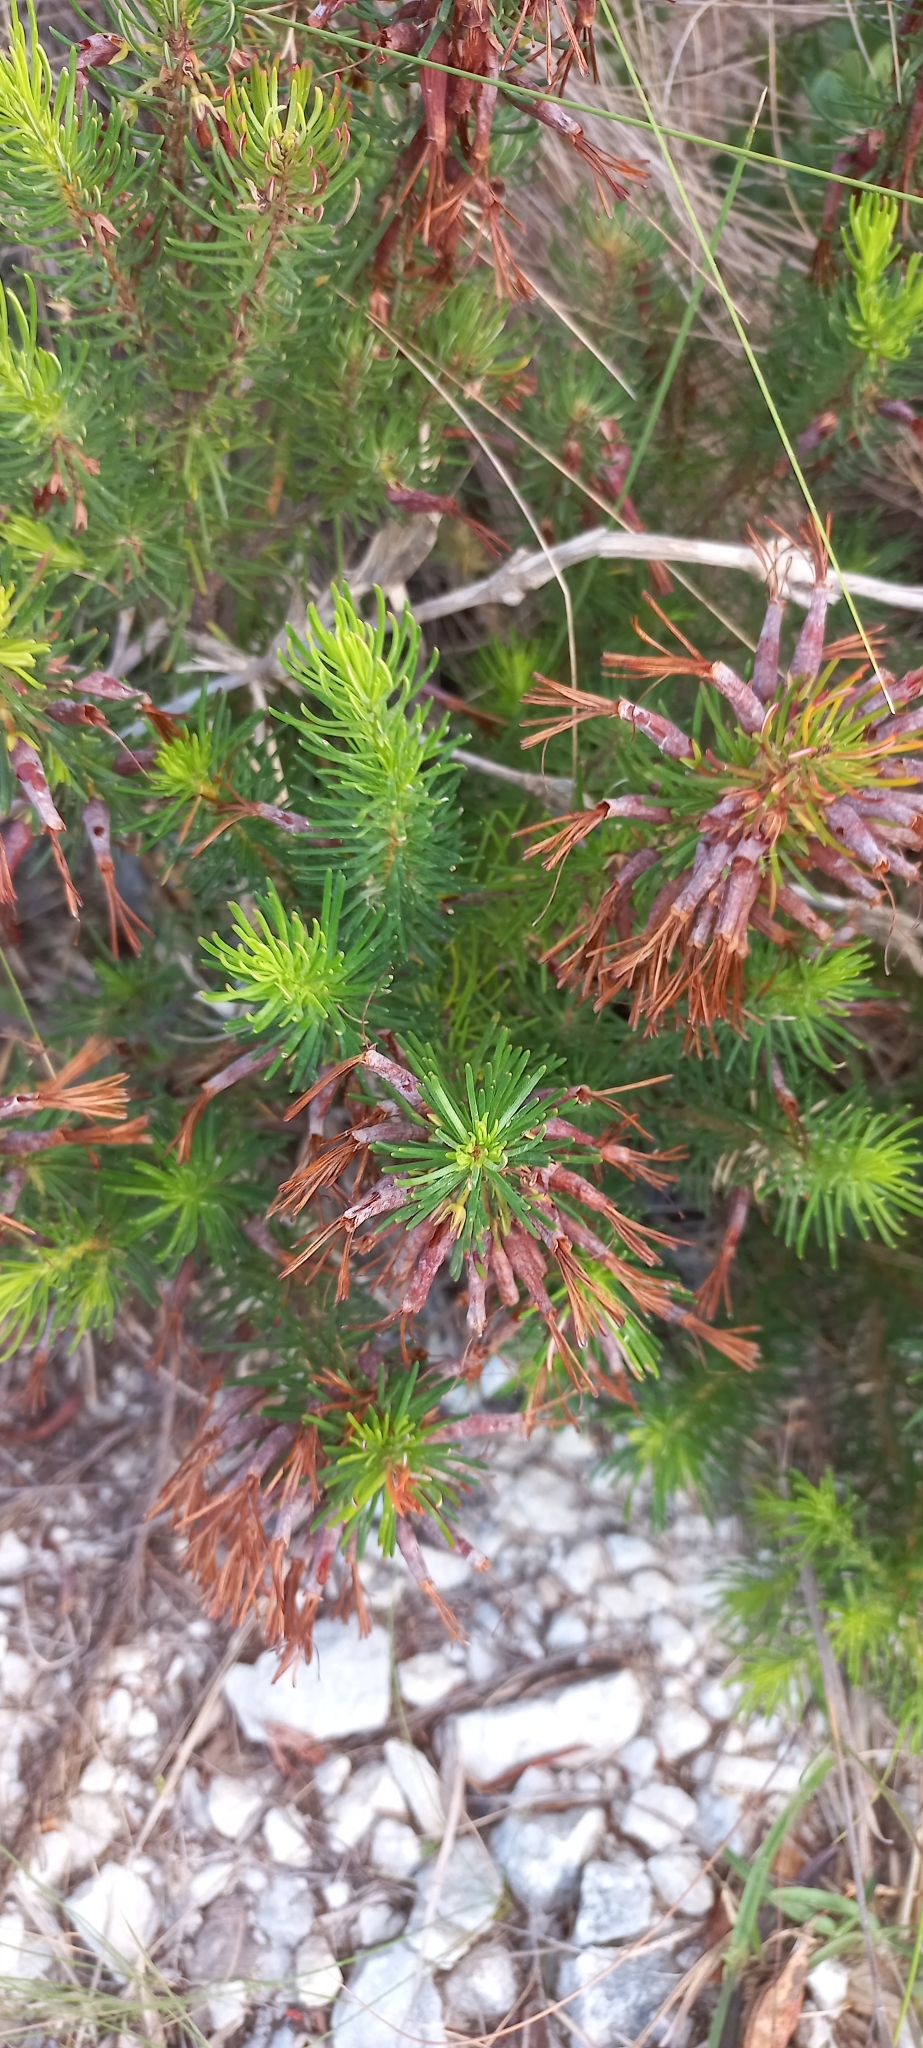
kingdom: Plantae
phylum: Tracheophyta
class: Magnoliopsida
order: Ericales
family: Ericaceae
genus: Erica
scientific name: Erica plukenetii
